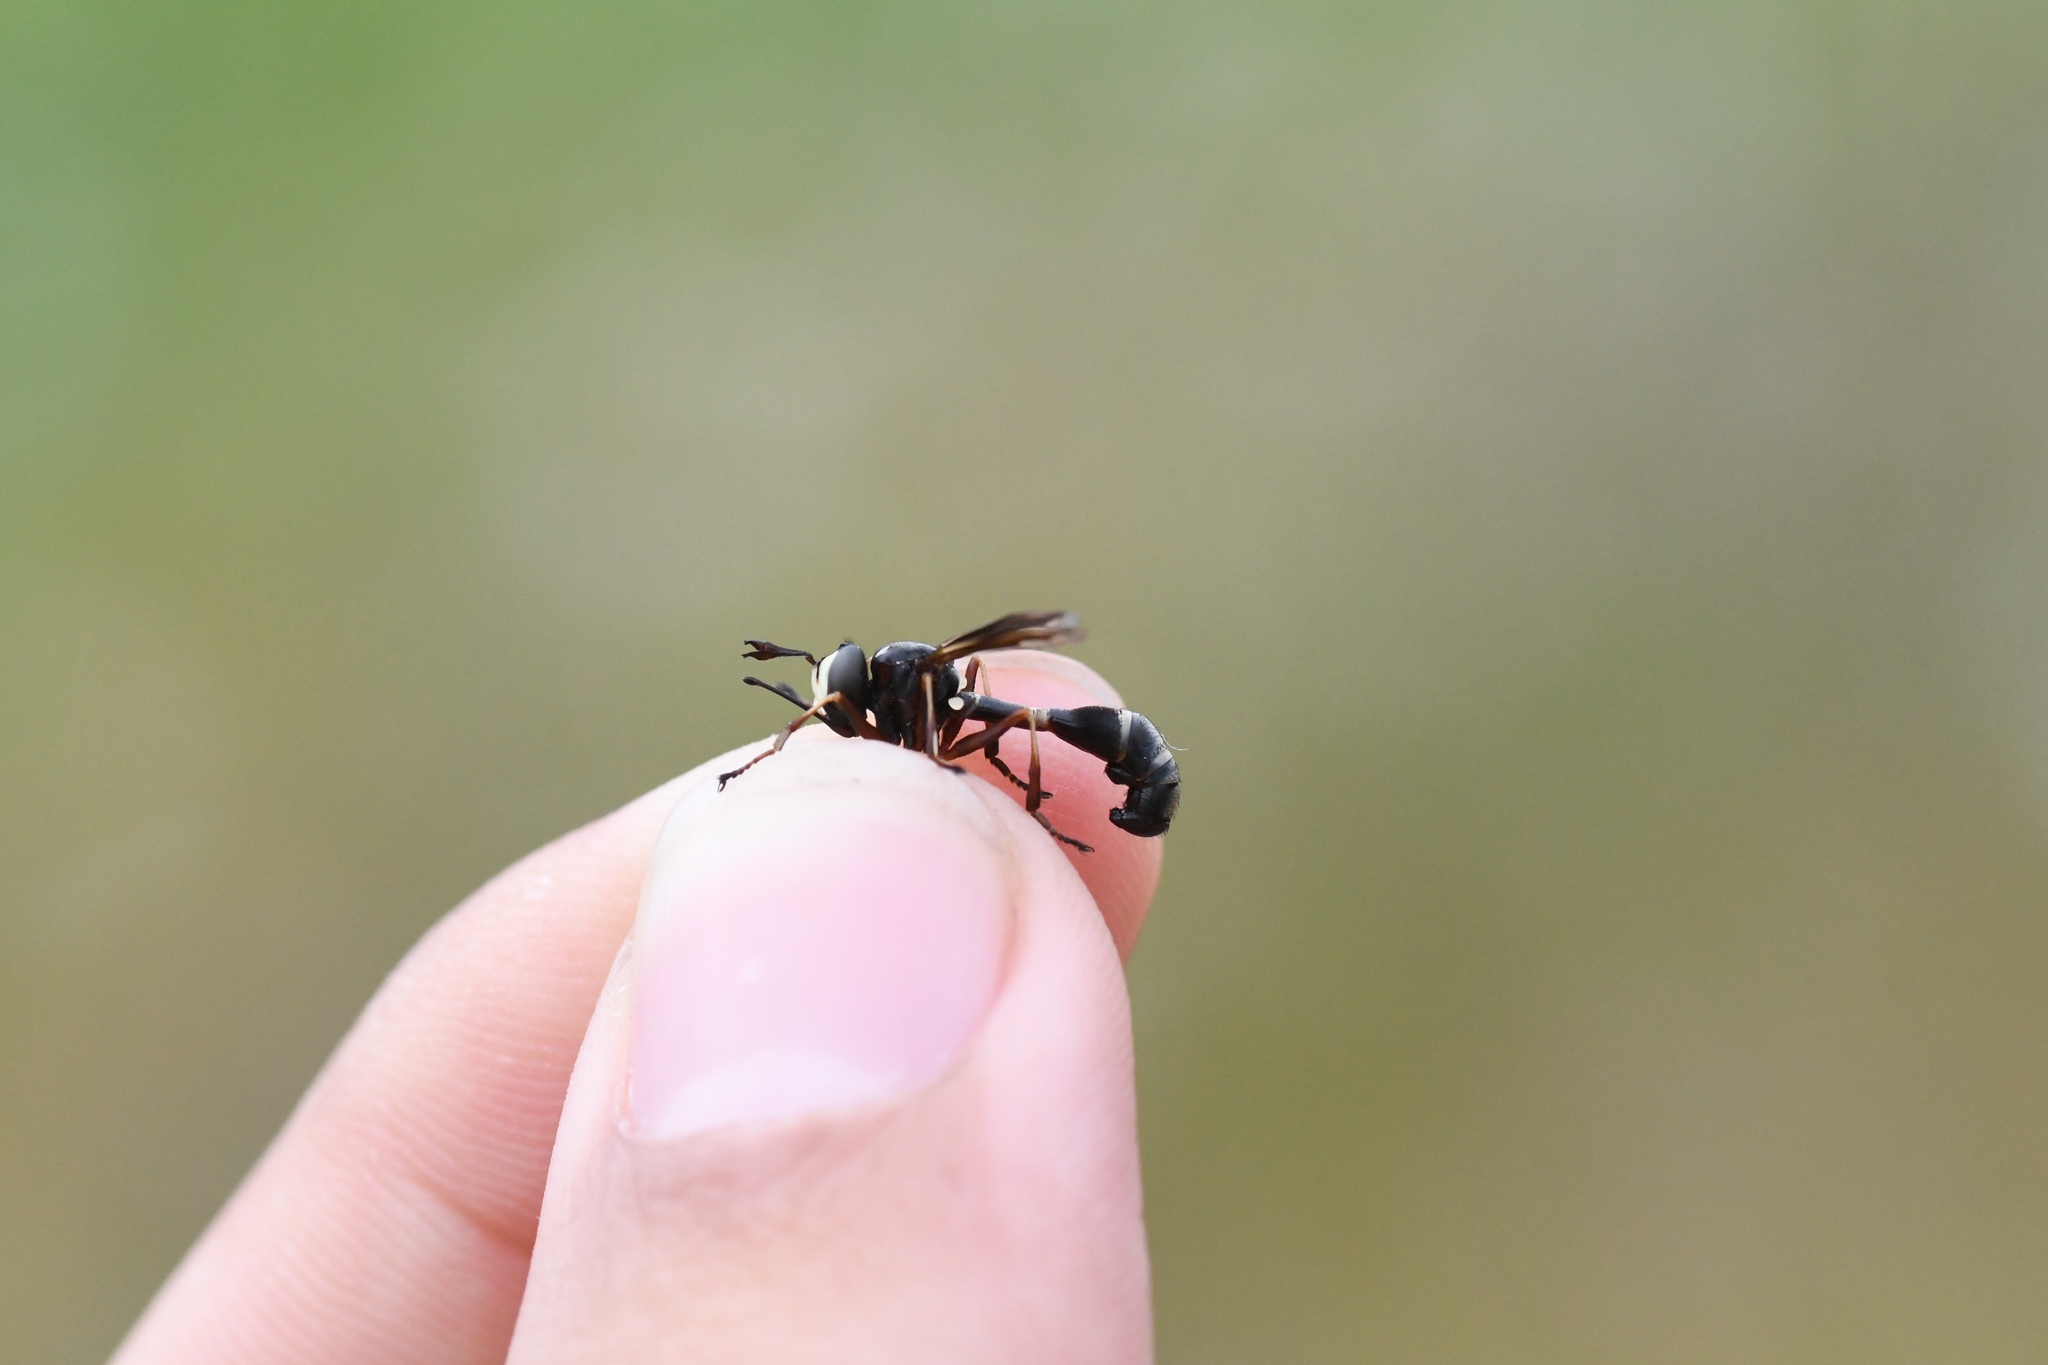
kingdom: Animalia
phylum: Arthropoda
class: Insecta
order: Diptera
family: Conopidae
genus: Physocephala
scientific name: Physocephala furcillata
